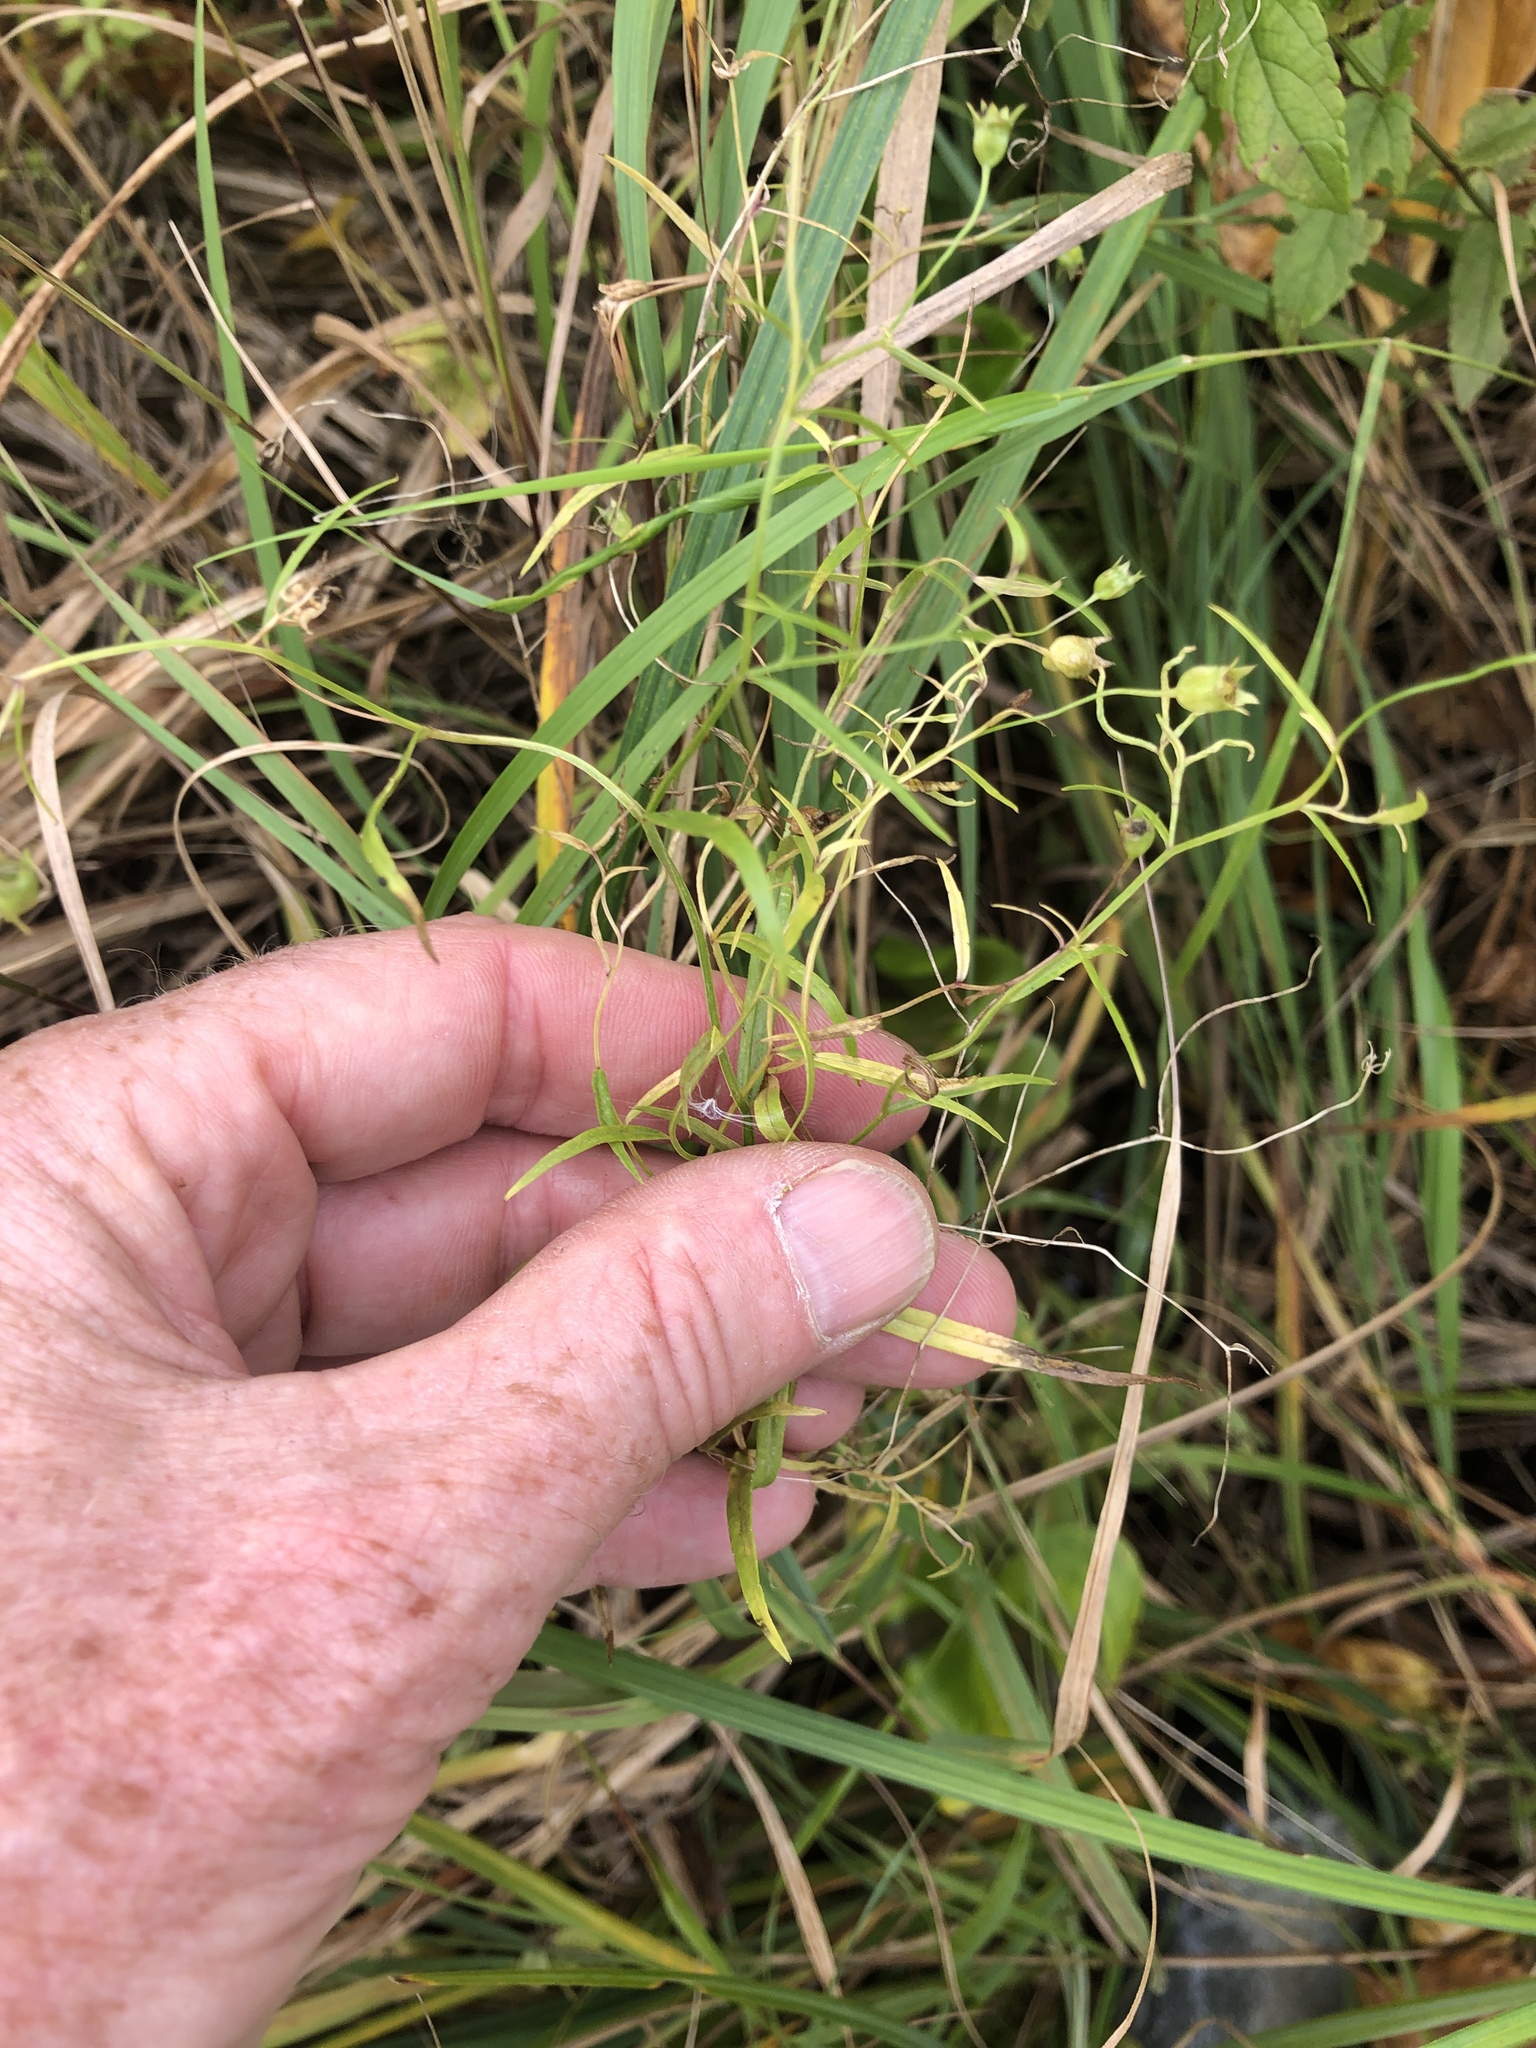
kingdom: Plantae
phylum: Tracheophyta
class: Magnoliopsida
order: Asterales
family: Campanulaceae
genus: Palustricodon
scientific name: Palustricodon aparinoides
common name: Bedstraw bellflower
